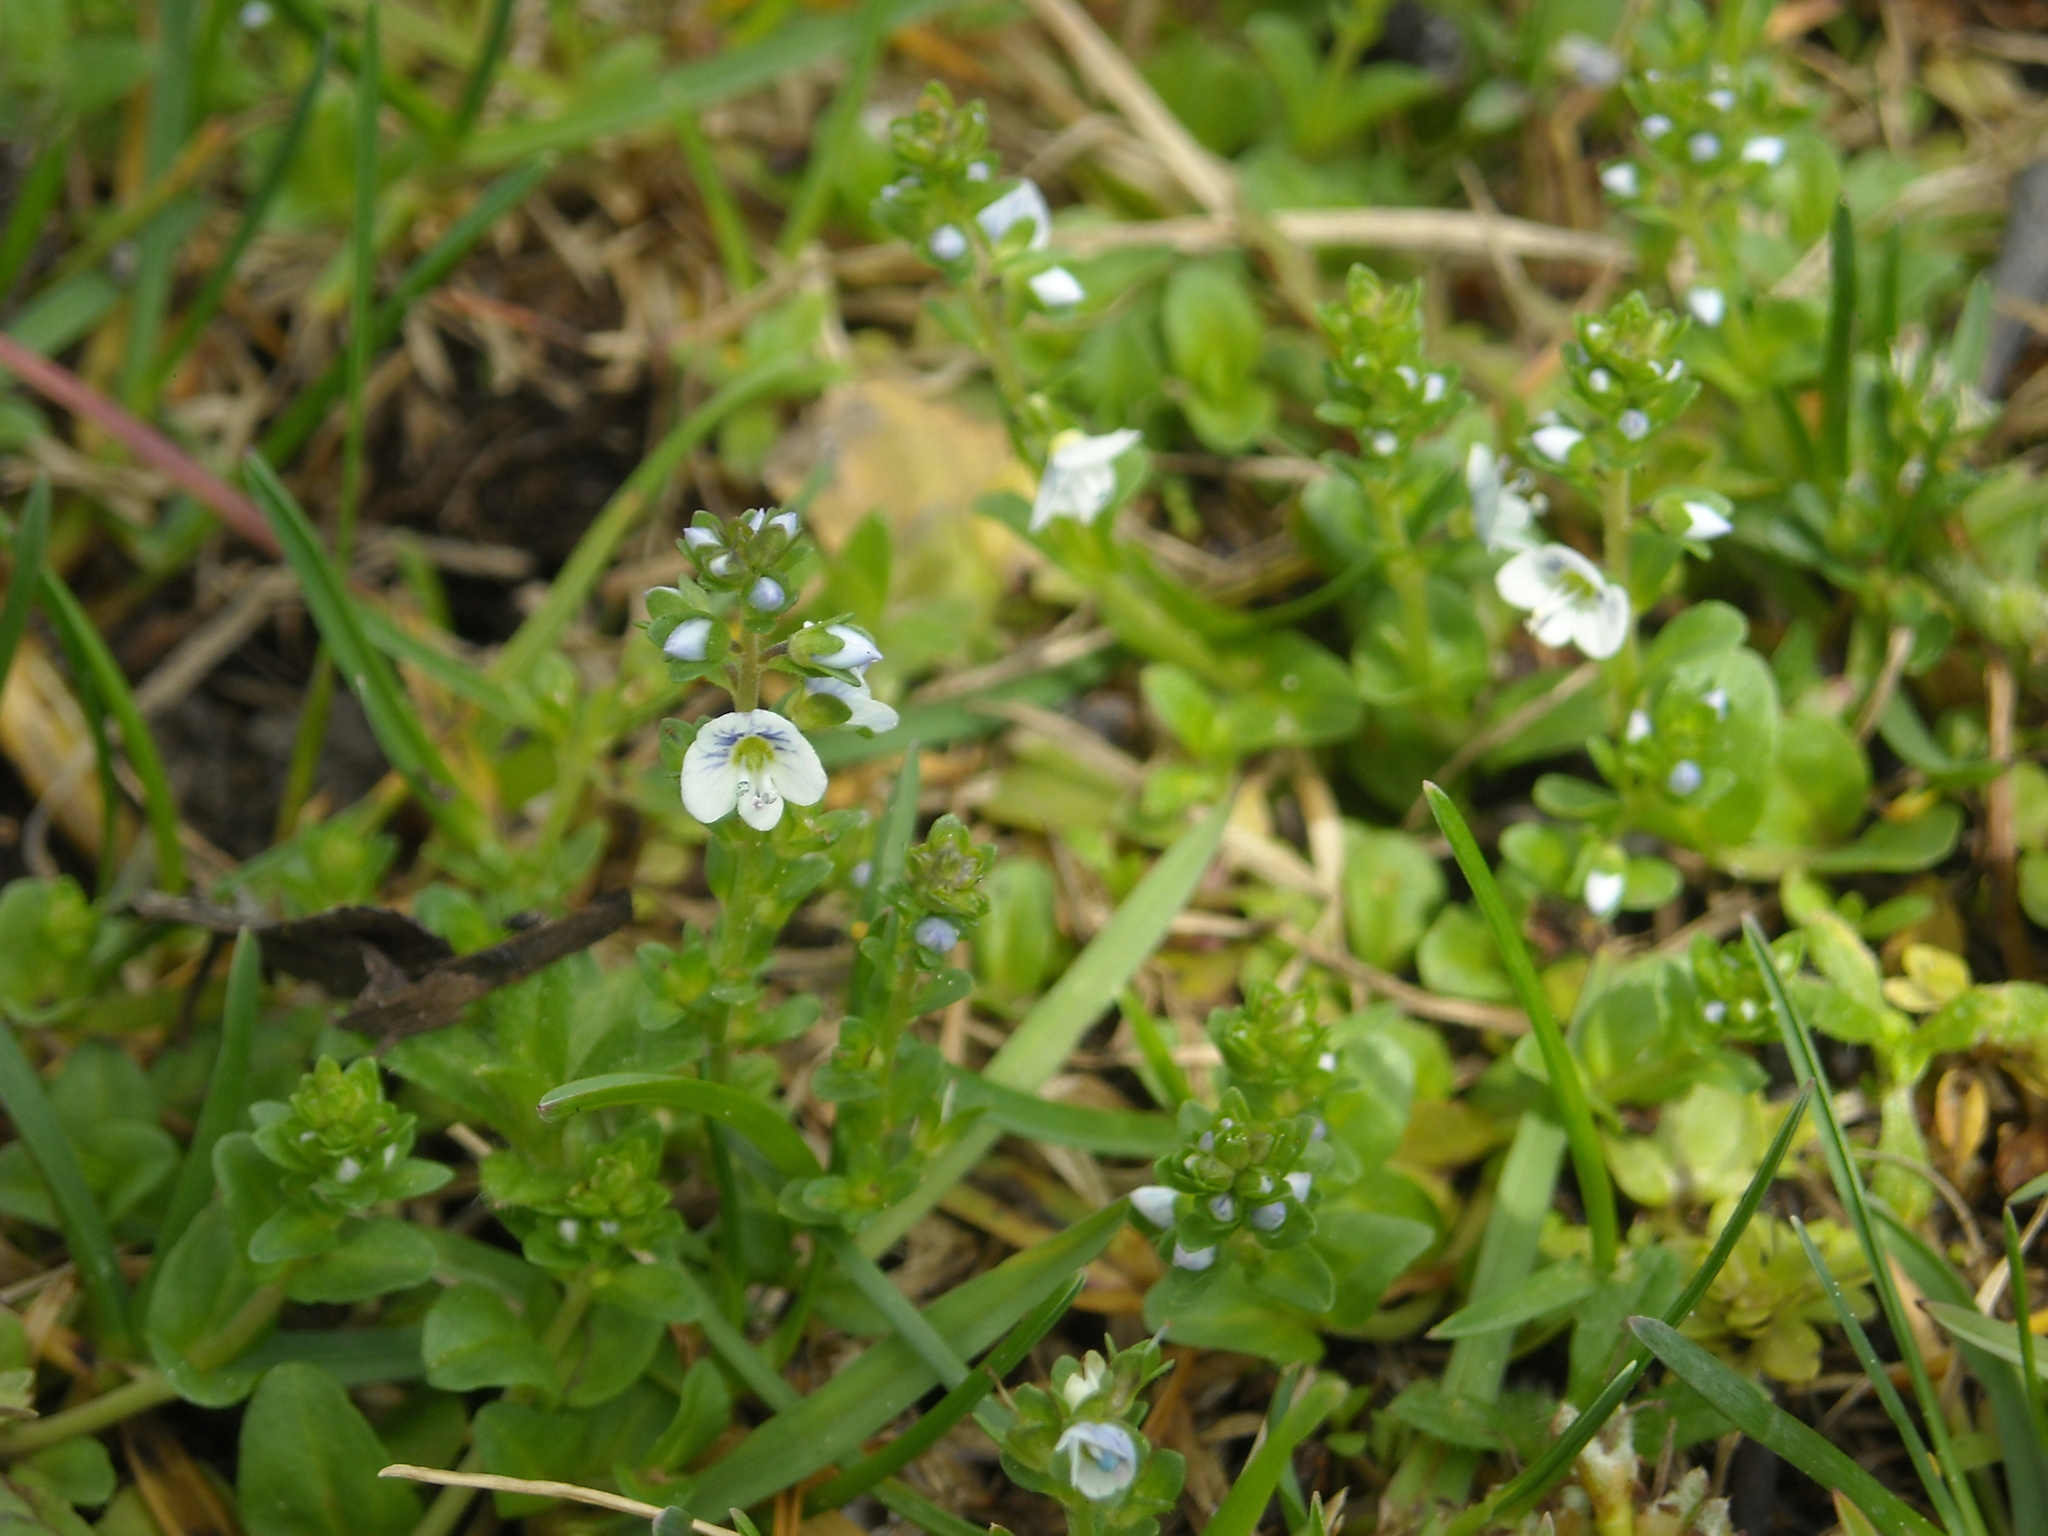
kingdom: Plantae
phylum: Tracheophyta
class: Magnoliopsida
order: Lamiales
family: Plantaginaceae
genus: Veronica
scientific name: Veronica serpyllifolia
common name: Thyme-leaved speedwell
